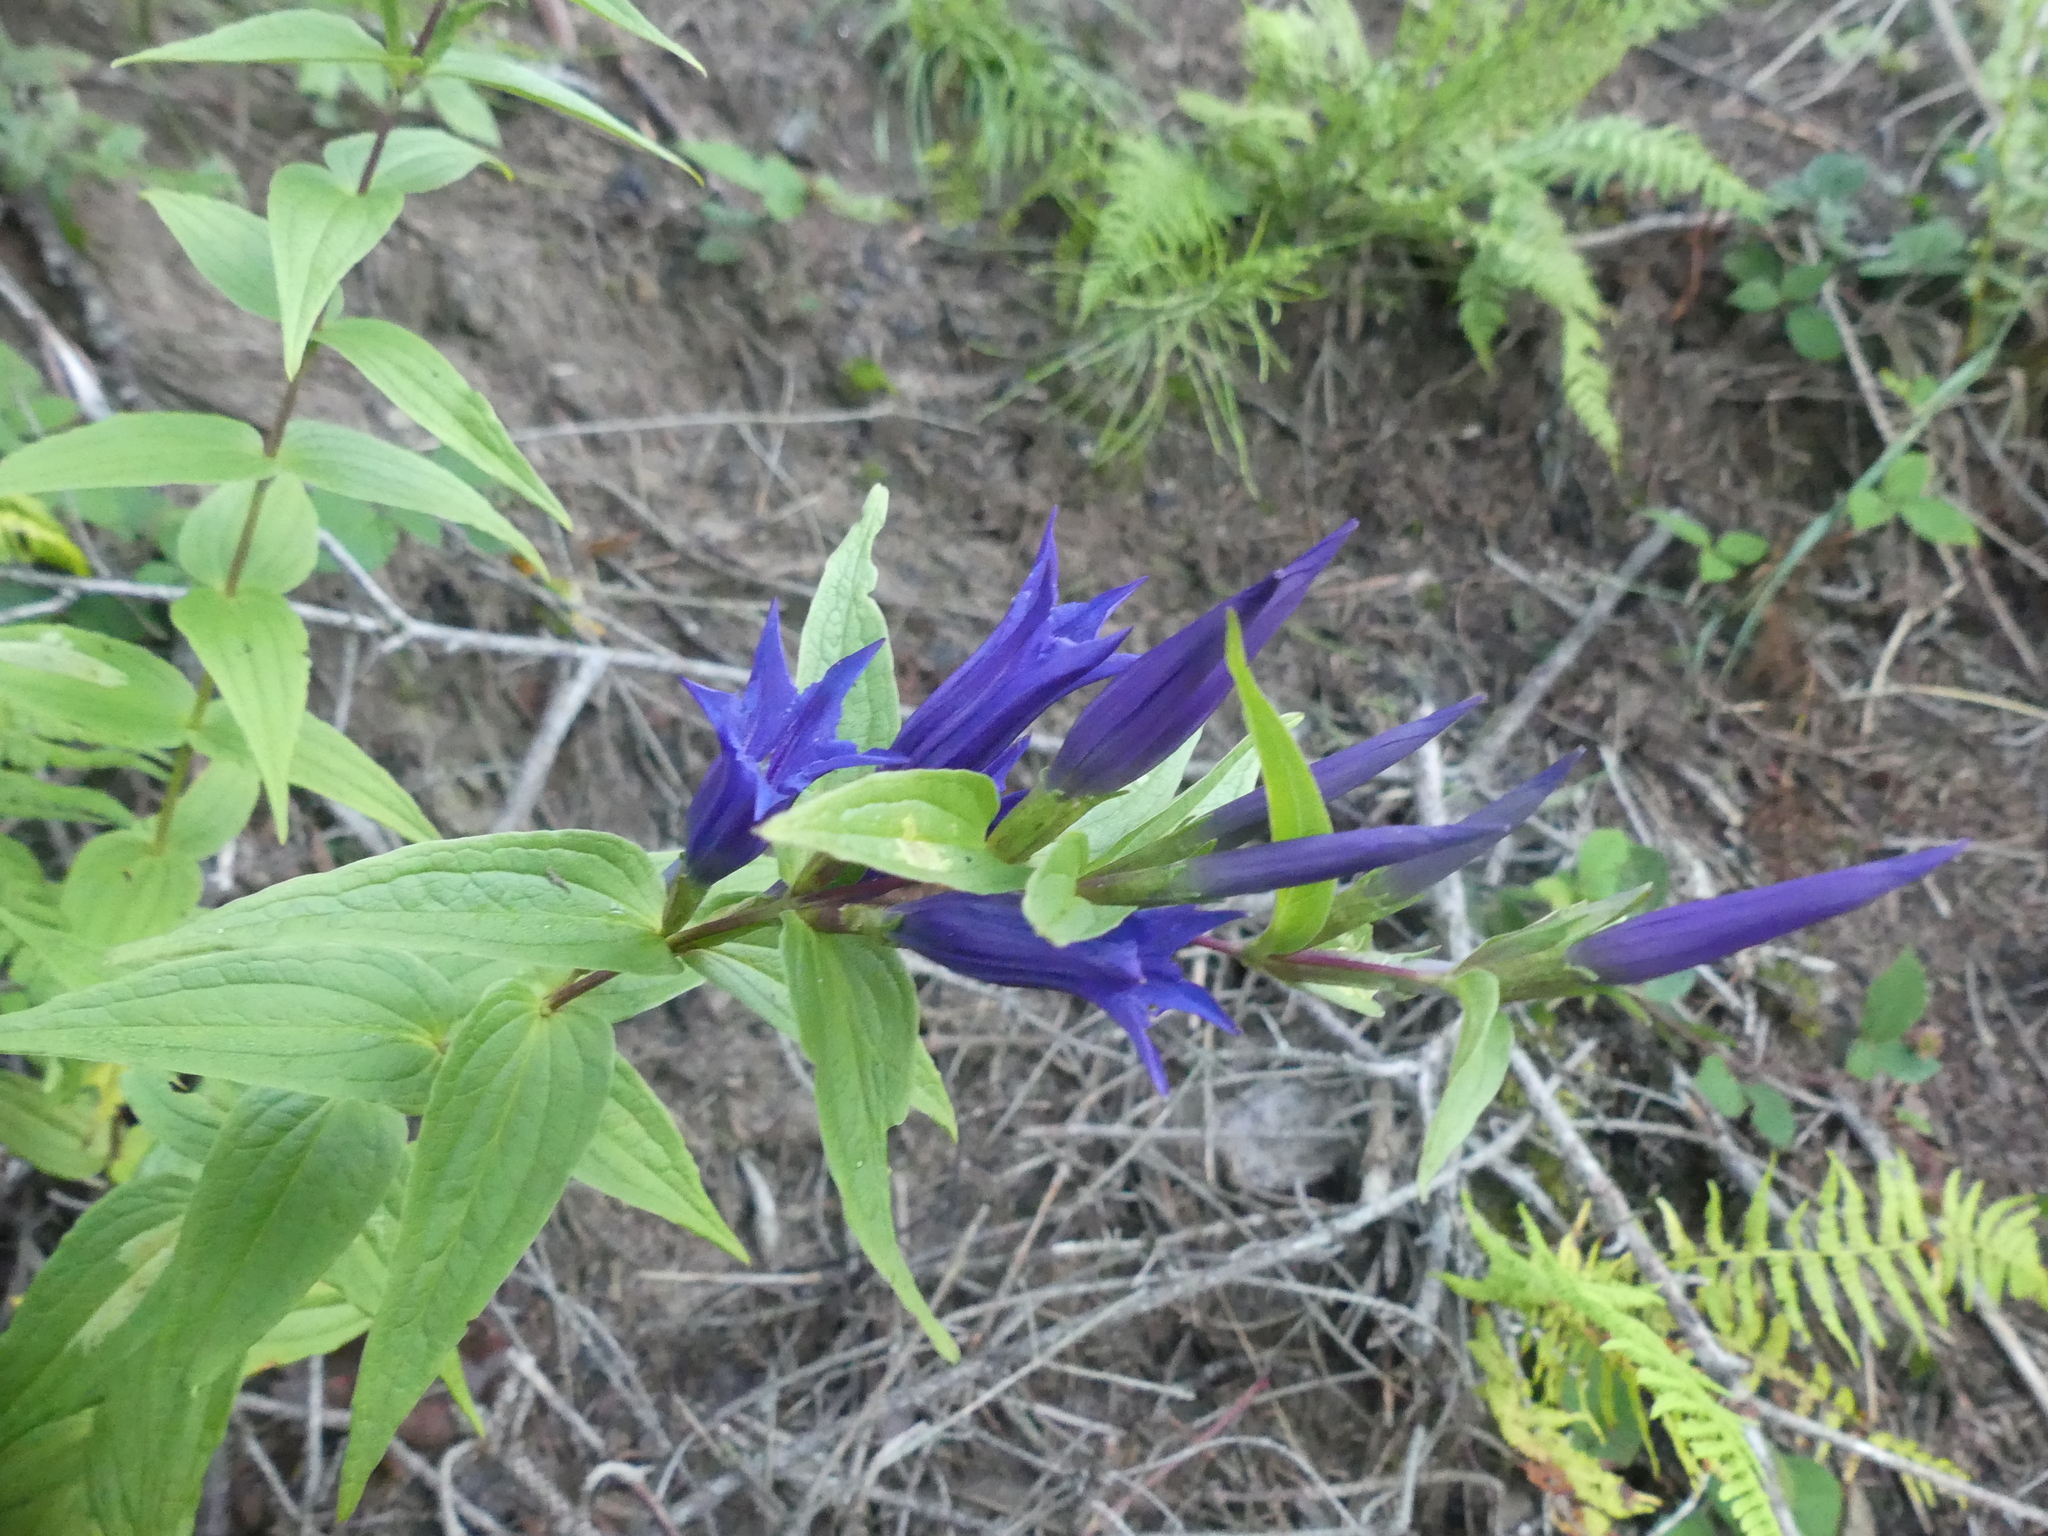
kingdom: Plantae
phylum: Tracheophyta
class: Magnoliopsida
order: Gentianales
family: Gentianaceae
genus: Gentiana
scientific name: Gentiana asclepiadea
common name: Willow gentian
